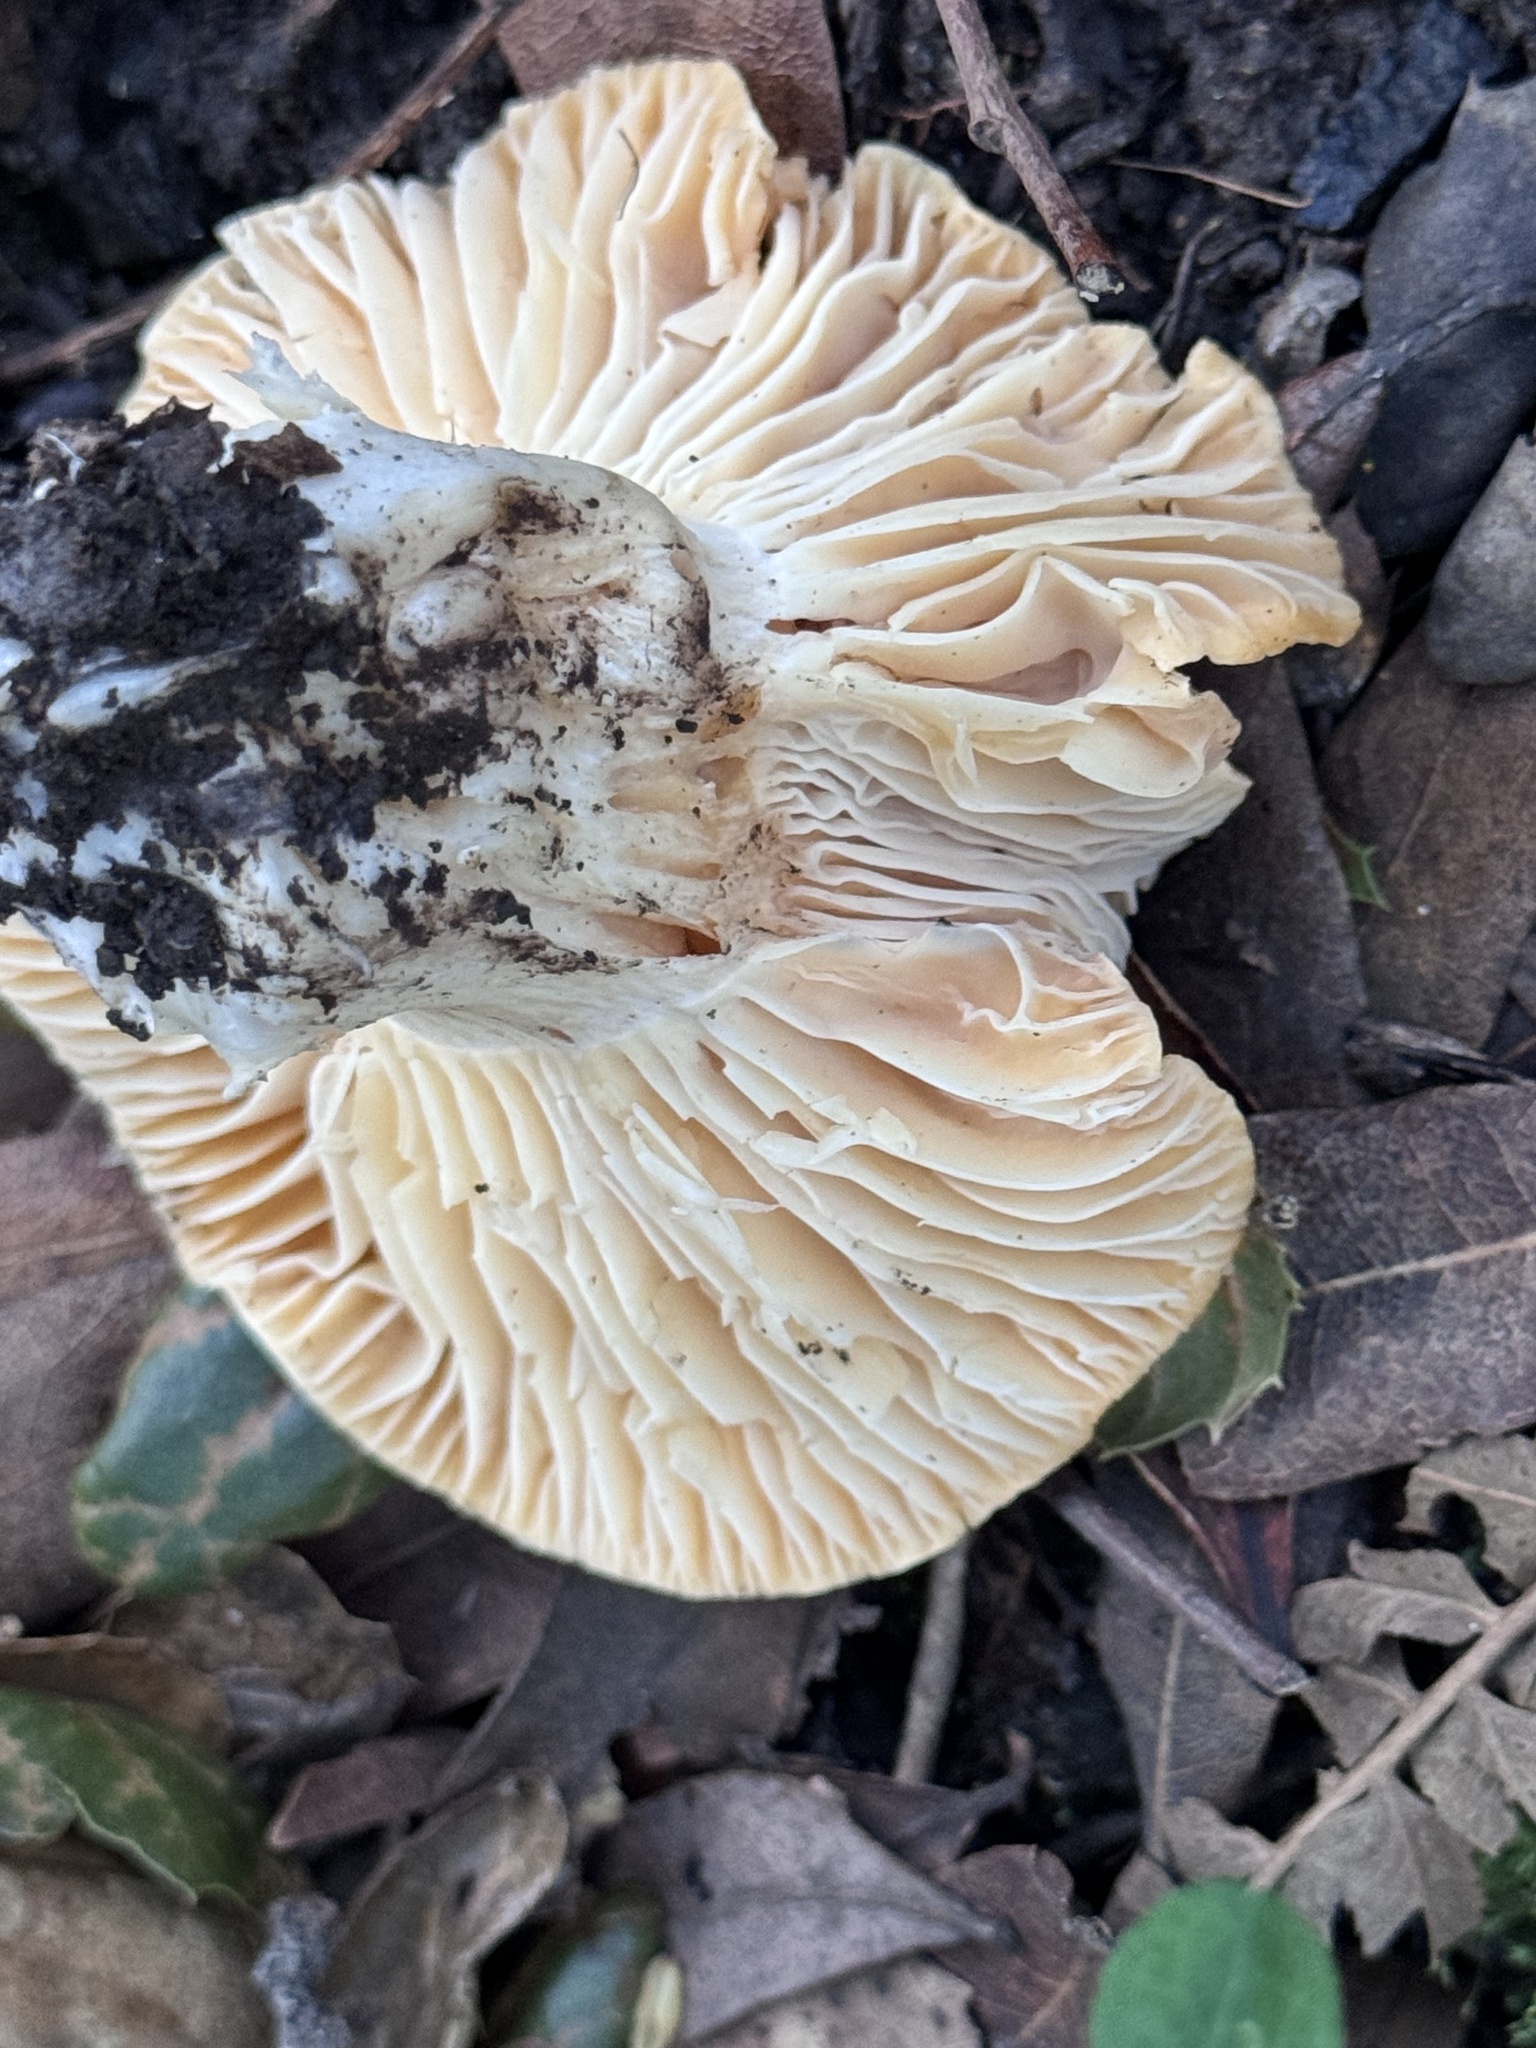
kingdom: Fungi
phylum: Basidiomycota
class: Agaricomycetes
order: Agaricales
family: Hygrophoraceae
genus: Cuphophyllus
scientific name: Cuphophyllus pratensis
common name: Meadow waxcap
